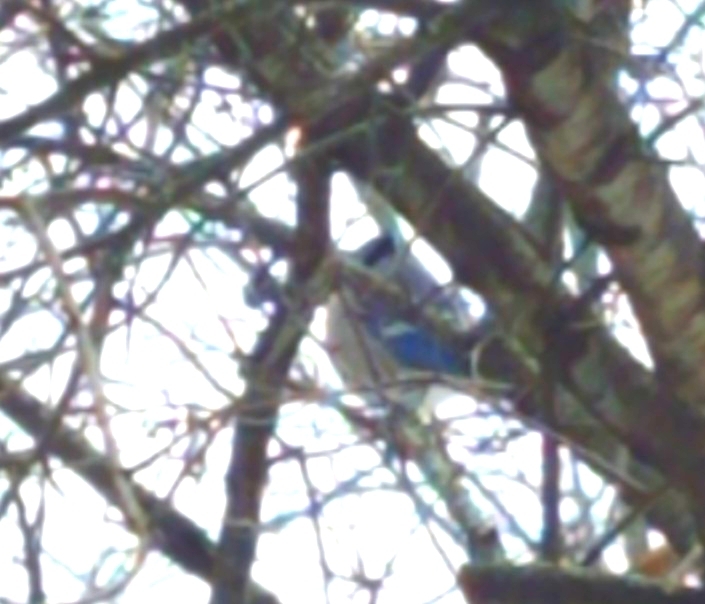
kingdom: Animalia
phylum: Chordata
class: Aves
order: Passeriformes
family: Corvidae
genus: Cyanocitta
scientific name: Cyanocitta cristata
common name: Blue jay
